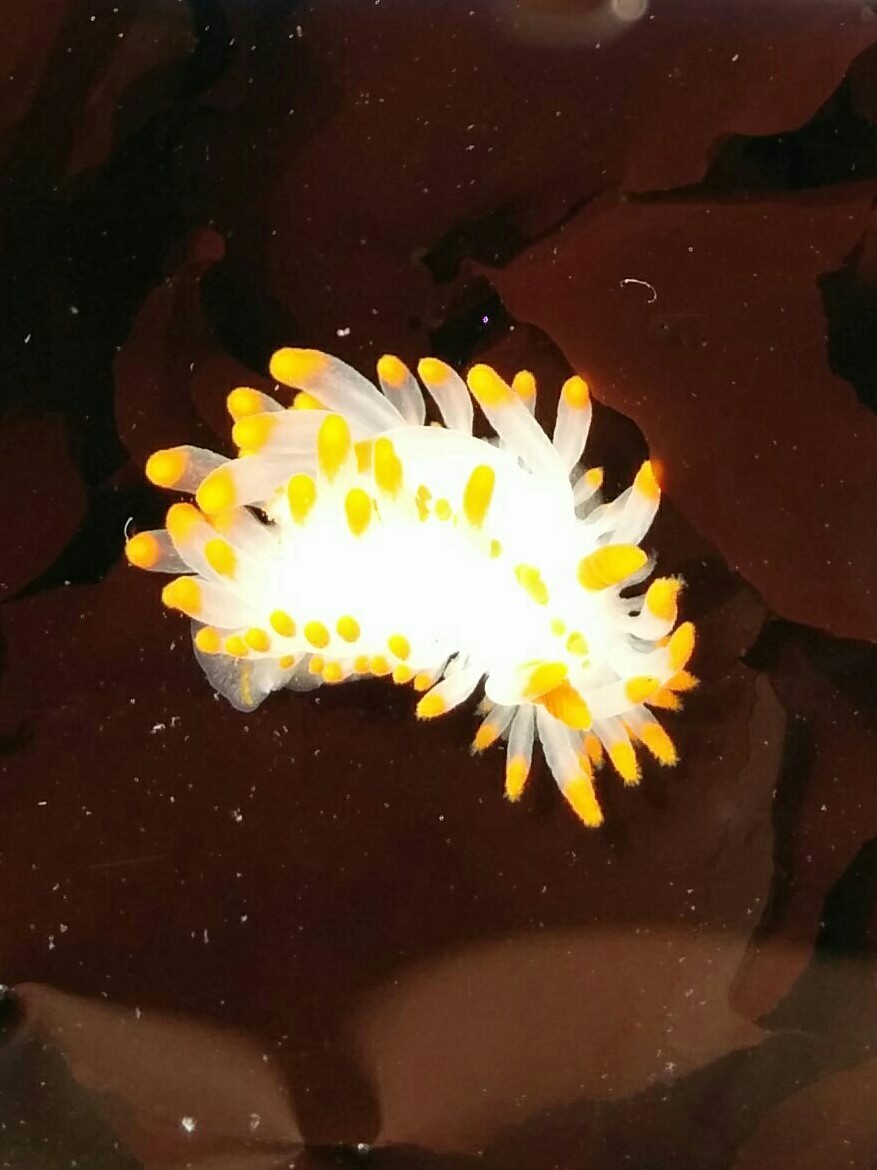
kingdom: Animalia
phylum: Mollusca
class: Gastropoda
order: Nudibranchia
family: Polyceridae
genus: Limacia
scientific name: Limacia mcdonaldi
